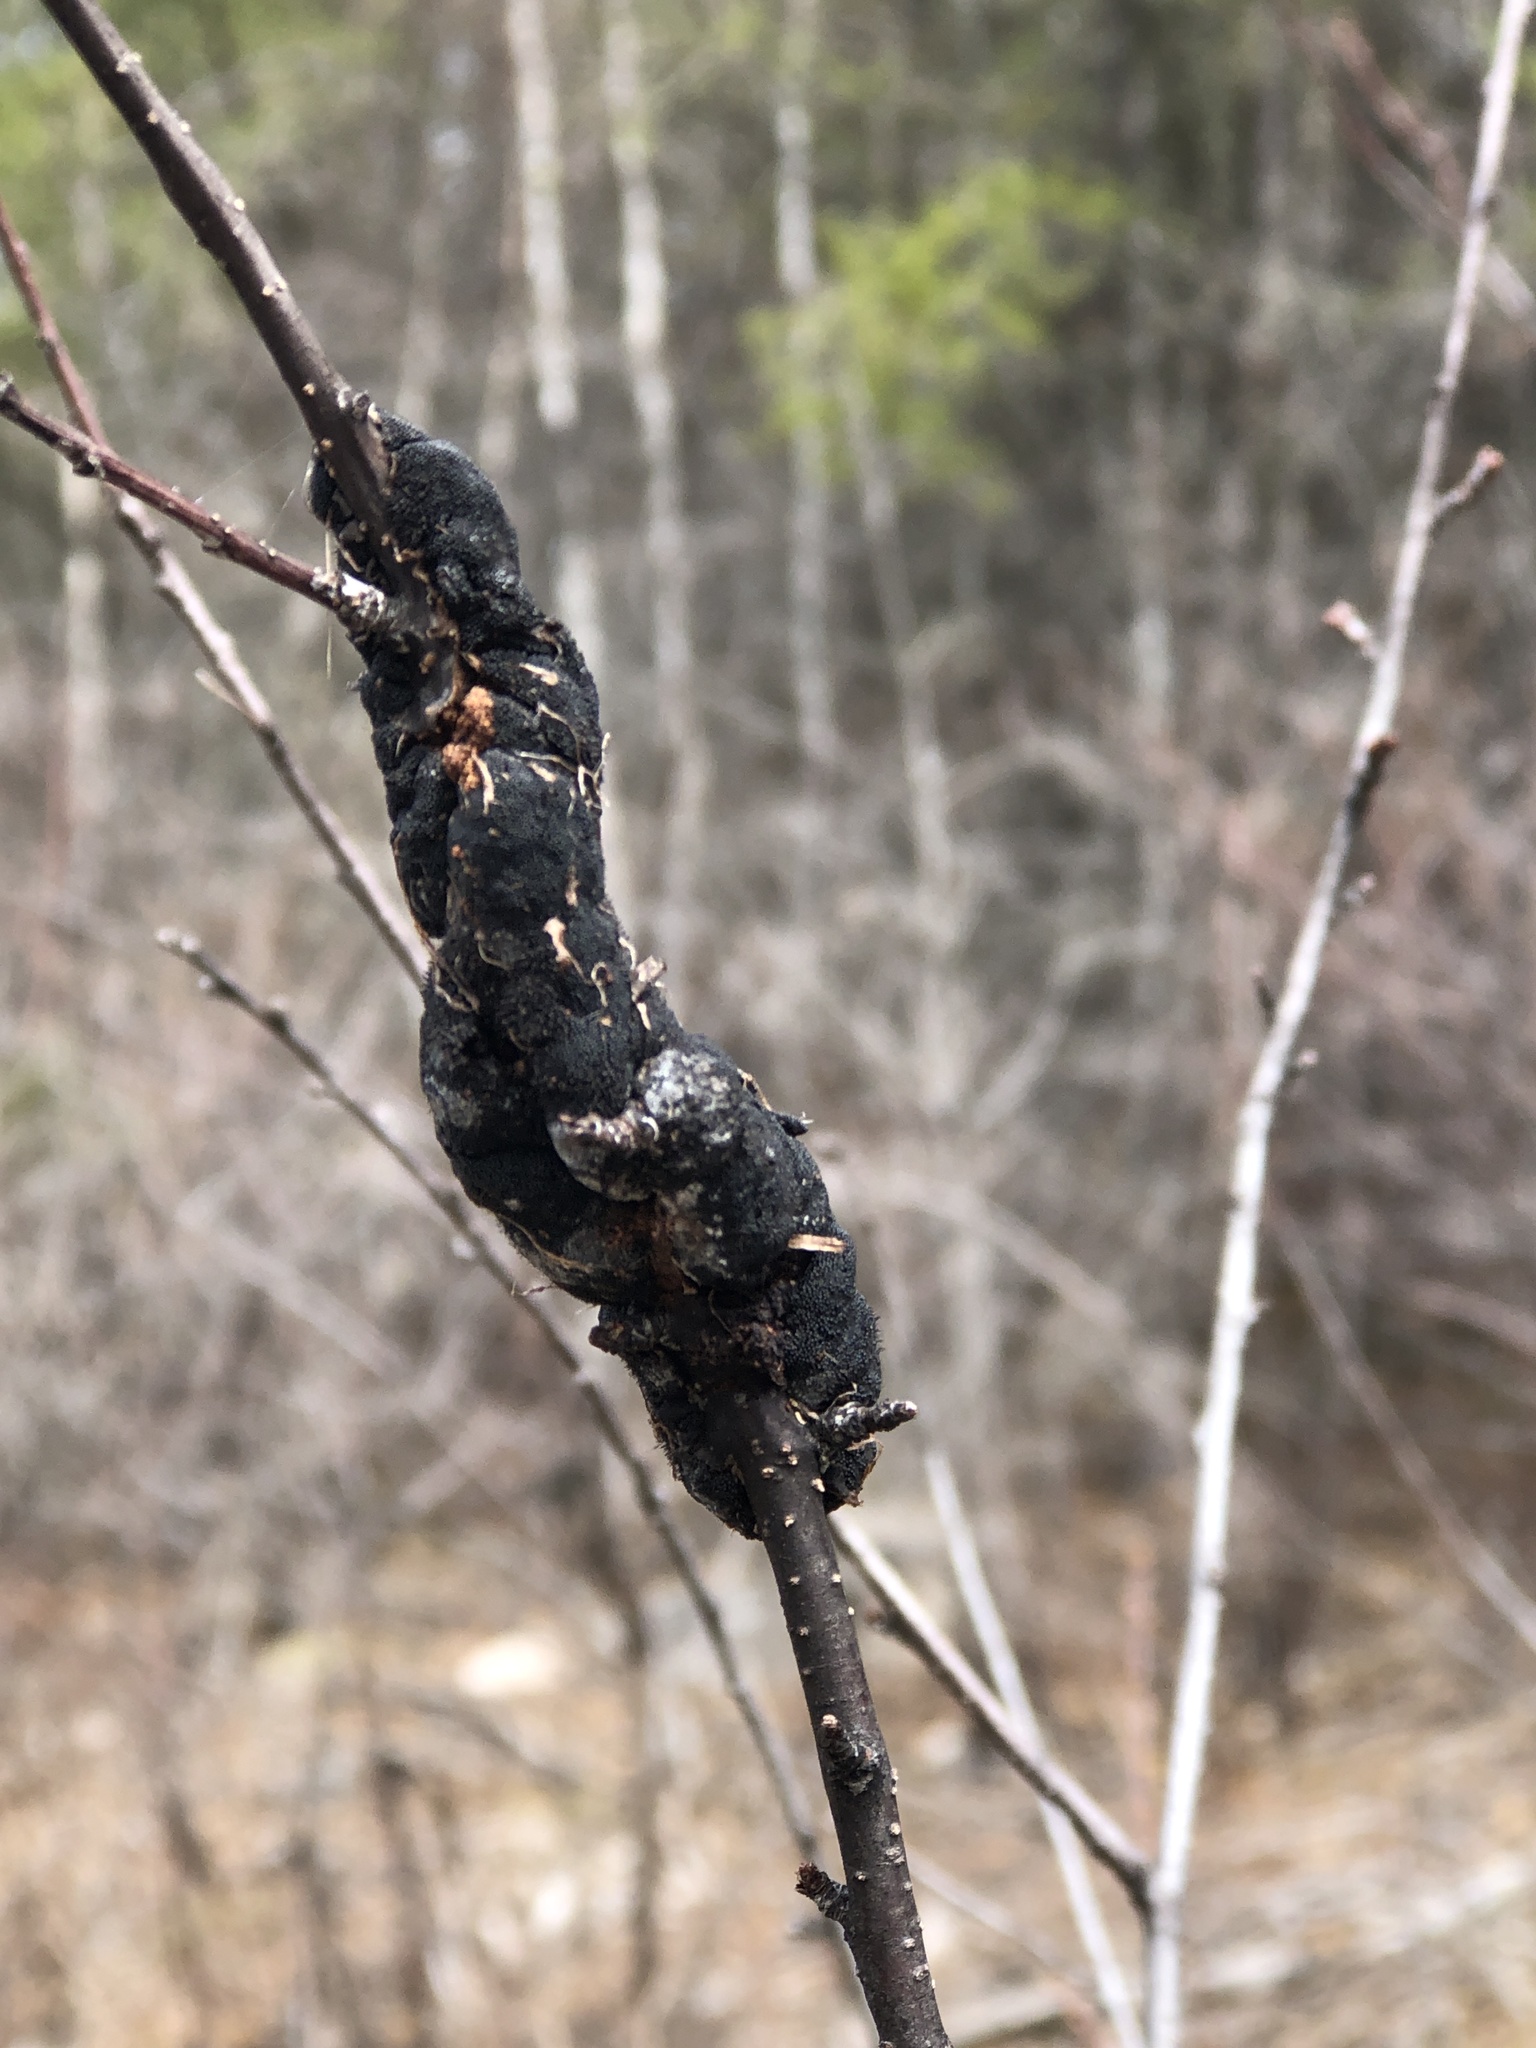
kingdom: Fungi
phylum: Ascomycota
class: Dothideomycetes
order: Venturiales
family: Venturiaceae
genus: Apiosporina
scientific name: Apiosporina morbosa
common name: Black knot
